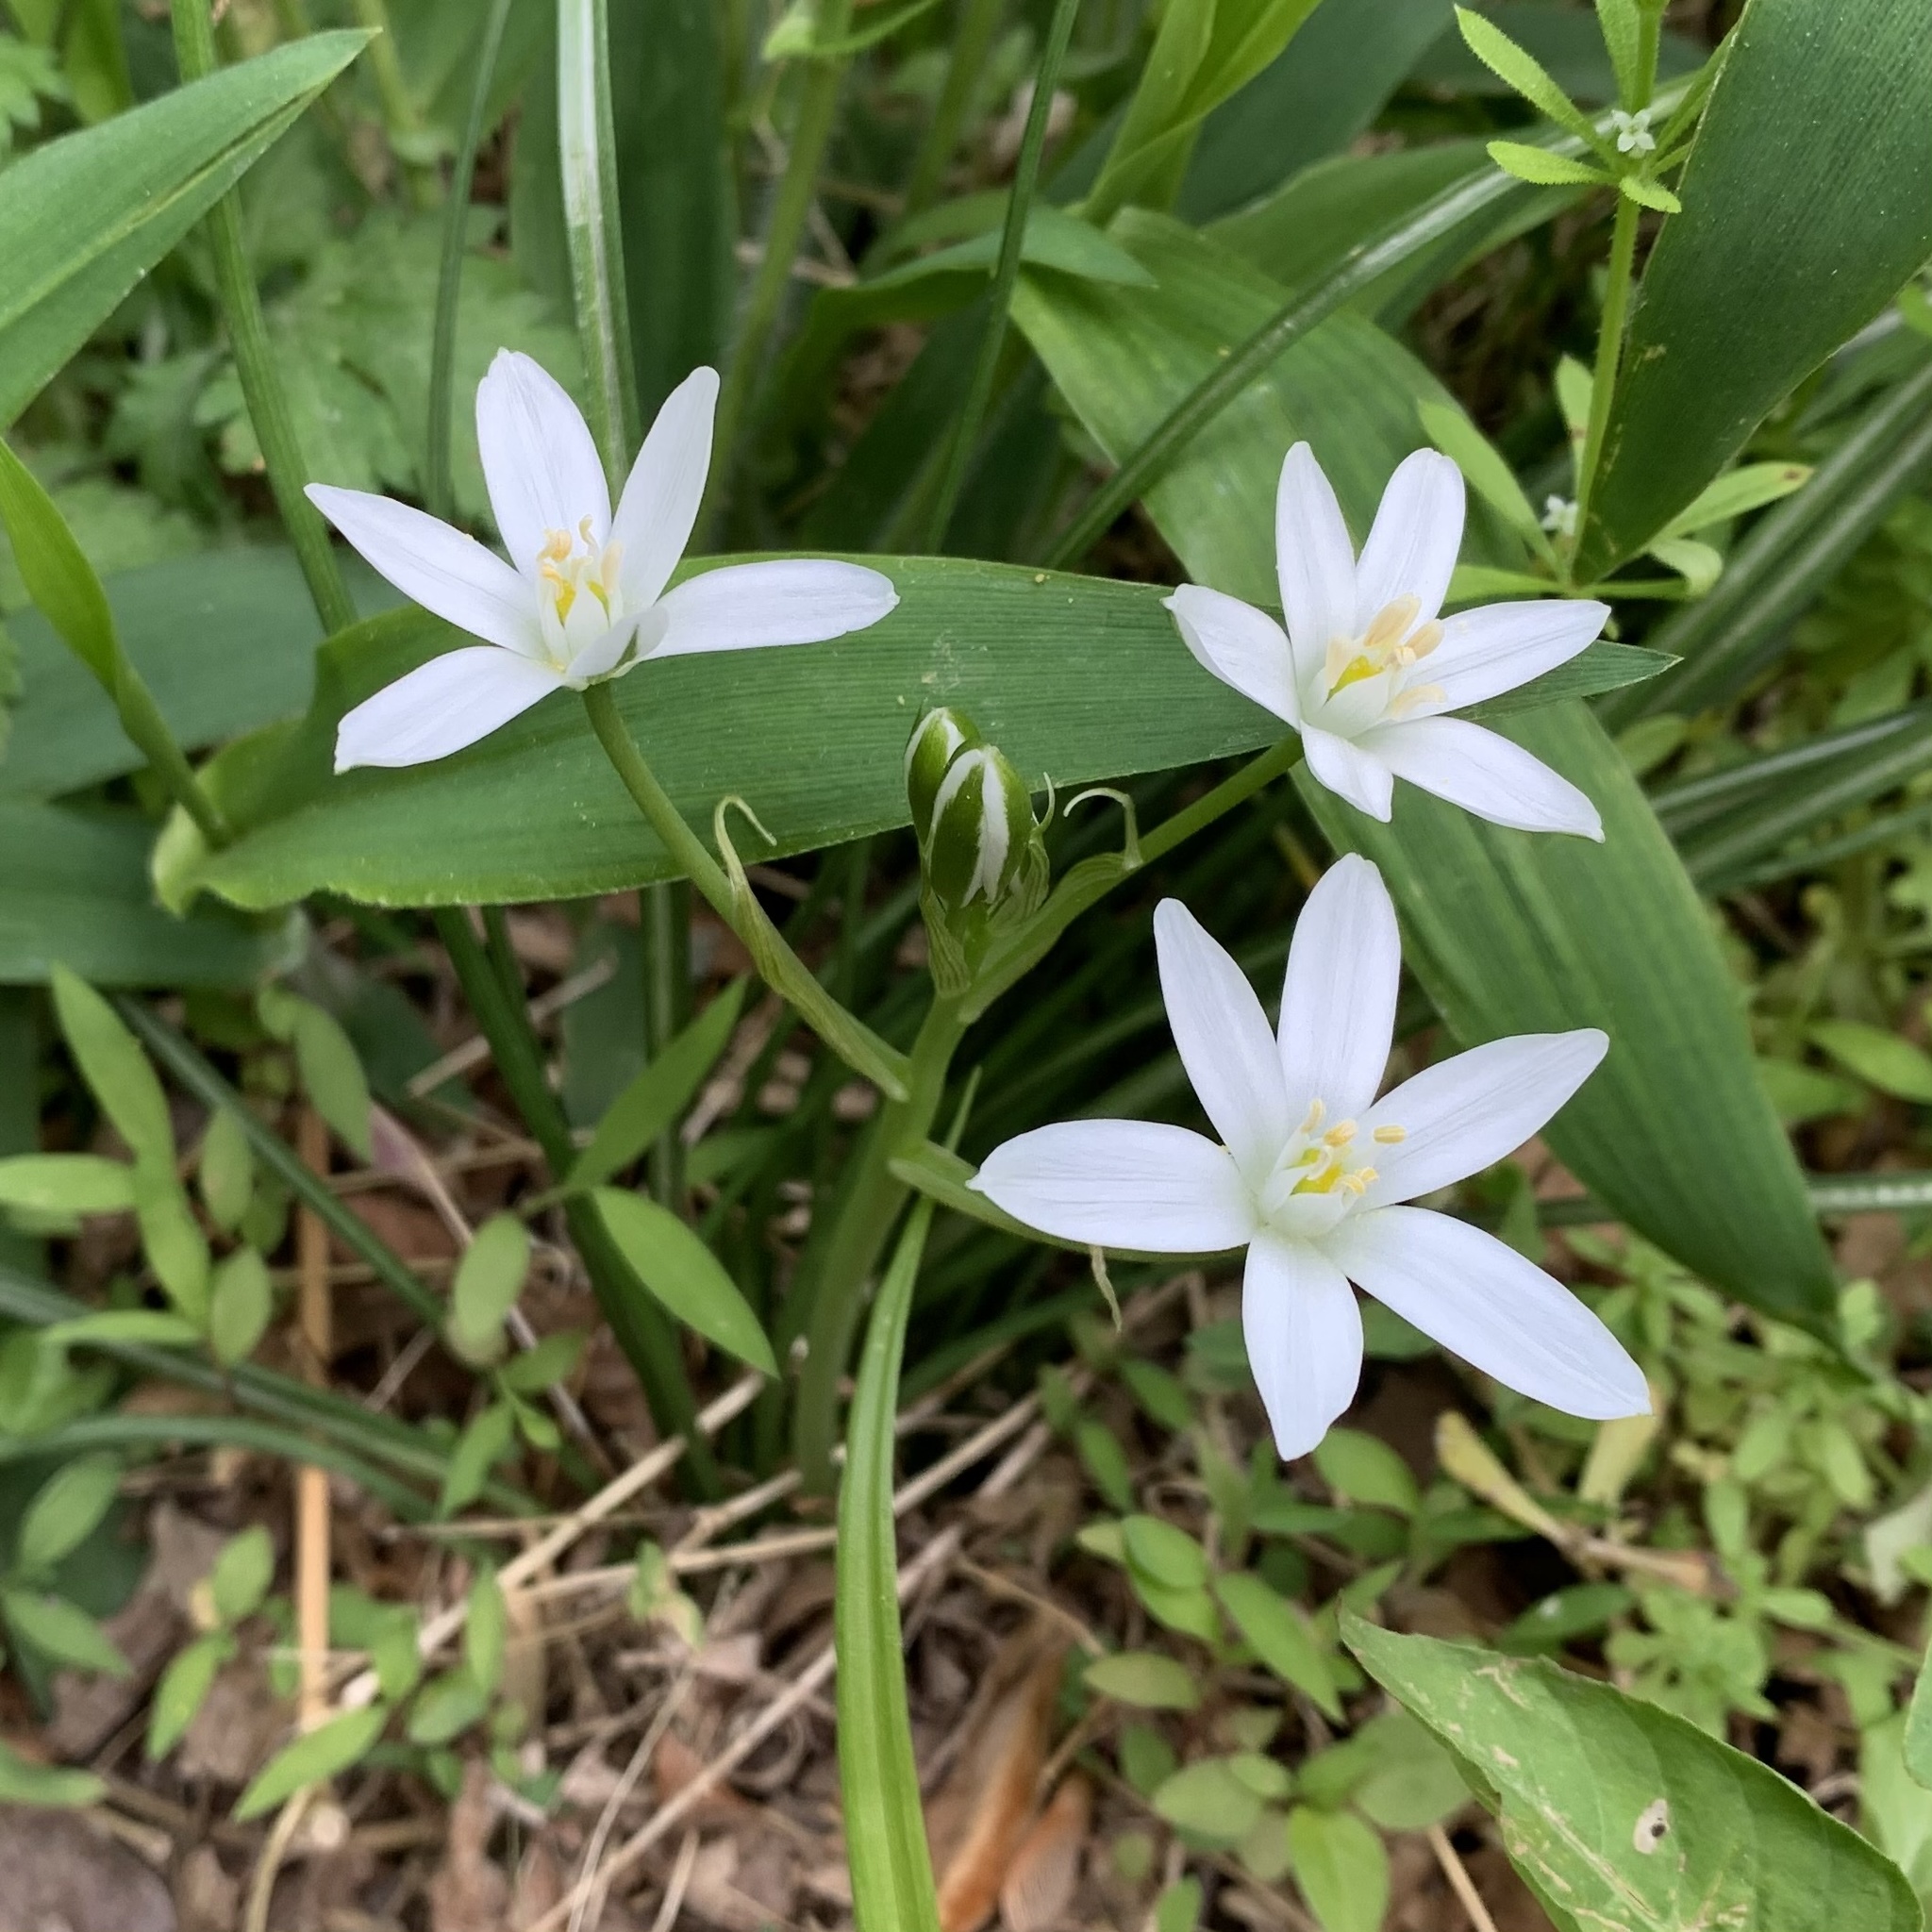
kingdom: Plantae
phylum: Tracheophyta
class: Liliopsida
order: Asparagales
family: Asparagaceae
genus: Ornithogalum
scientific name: Ornithogalum umbellatum
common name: Garden star-of-bethlehem
